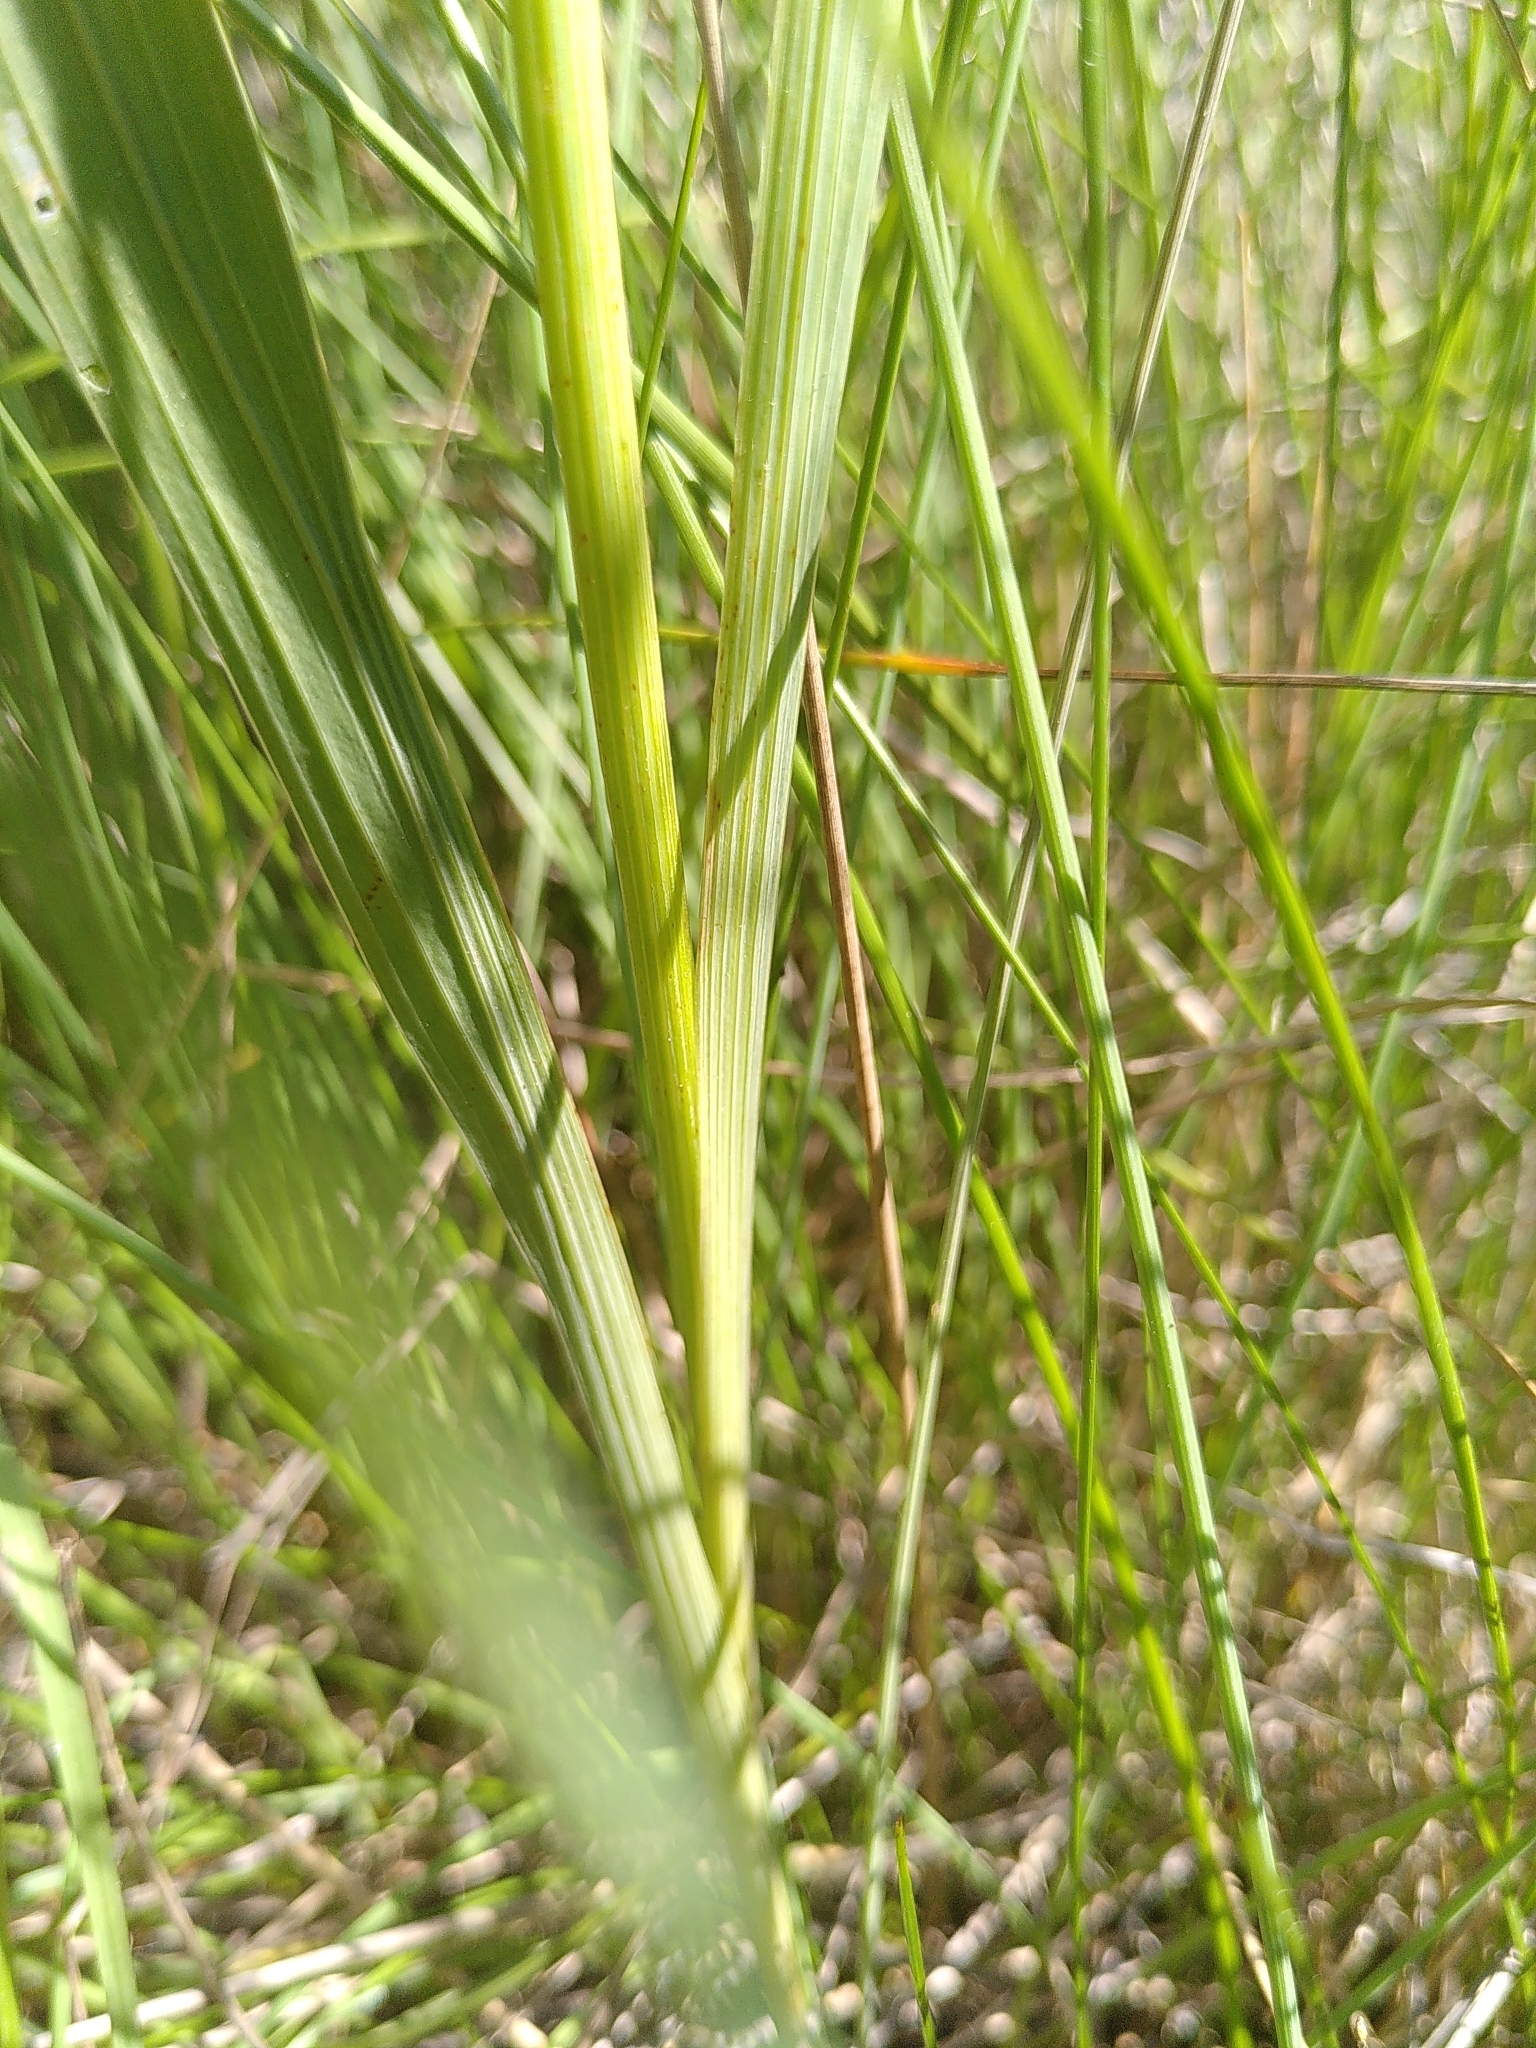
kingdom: Plantae
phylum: Tracheophyta
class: Liliopsida
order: Asparagales
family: Iridaceae
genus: Gladiolus
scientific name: Gladiolus dubius
